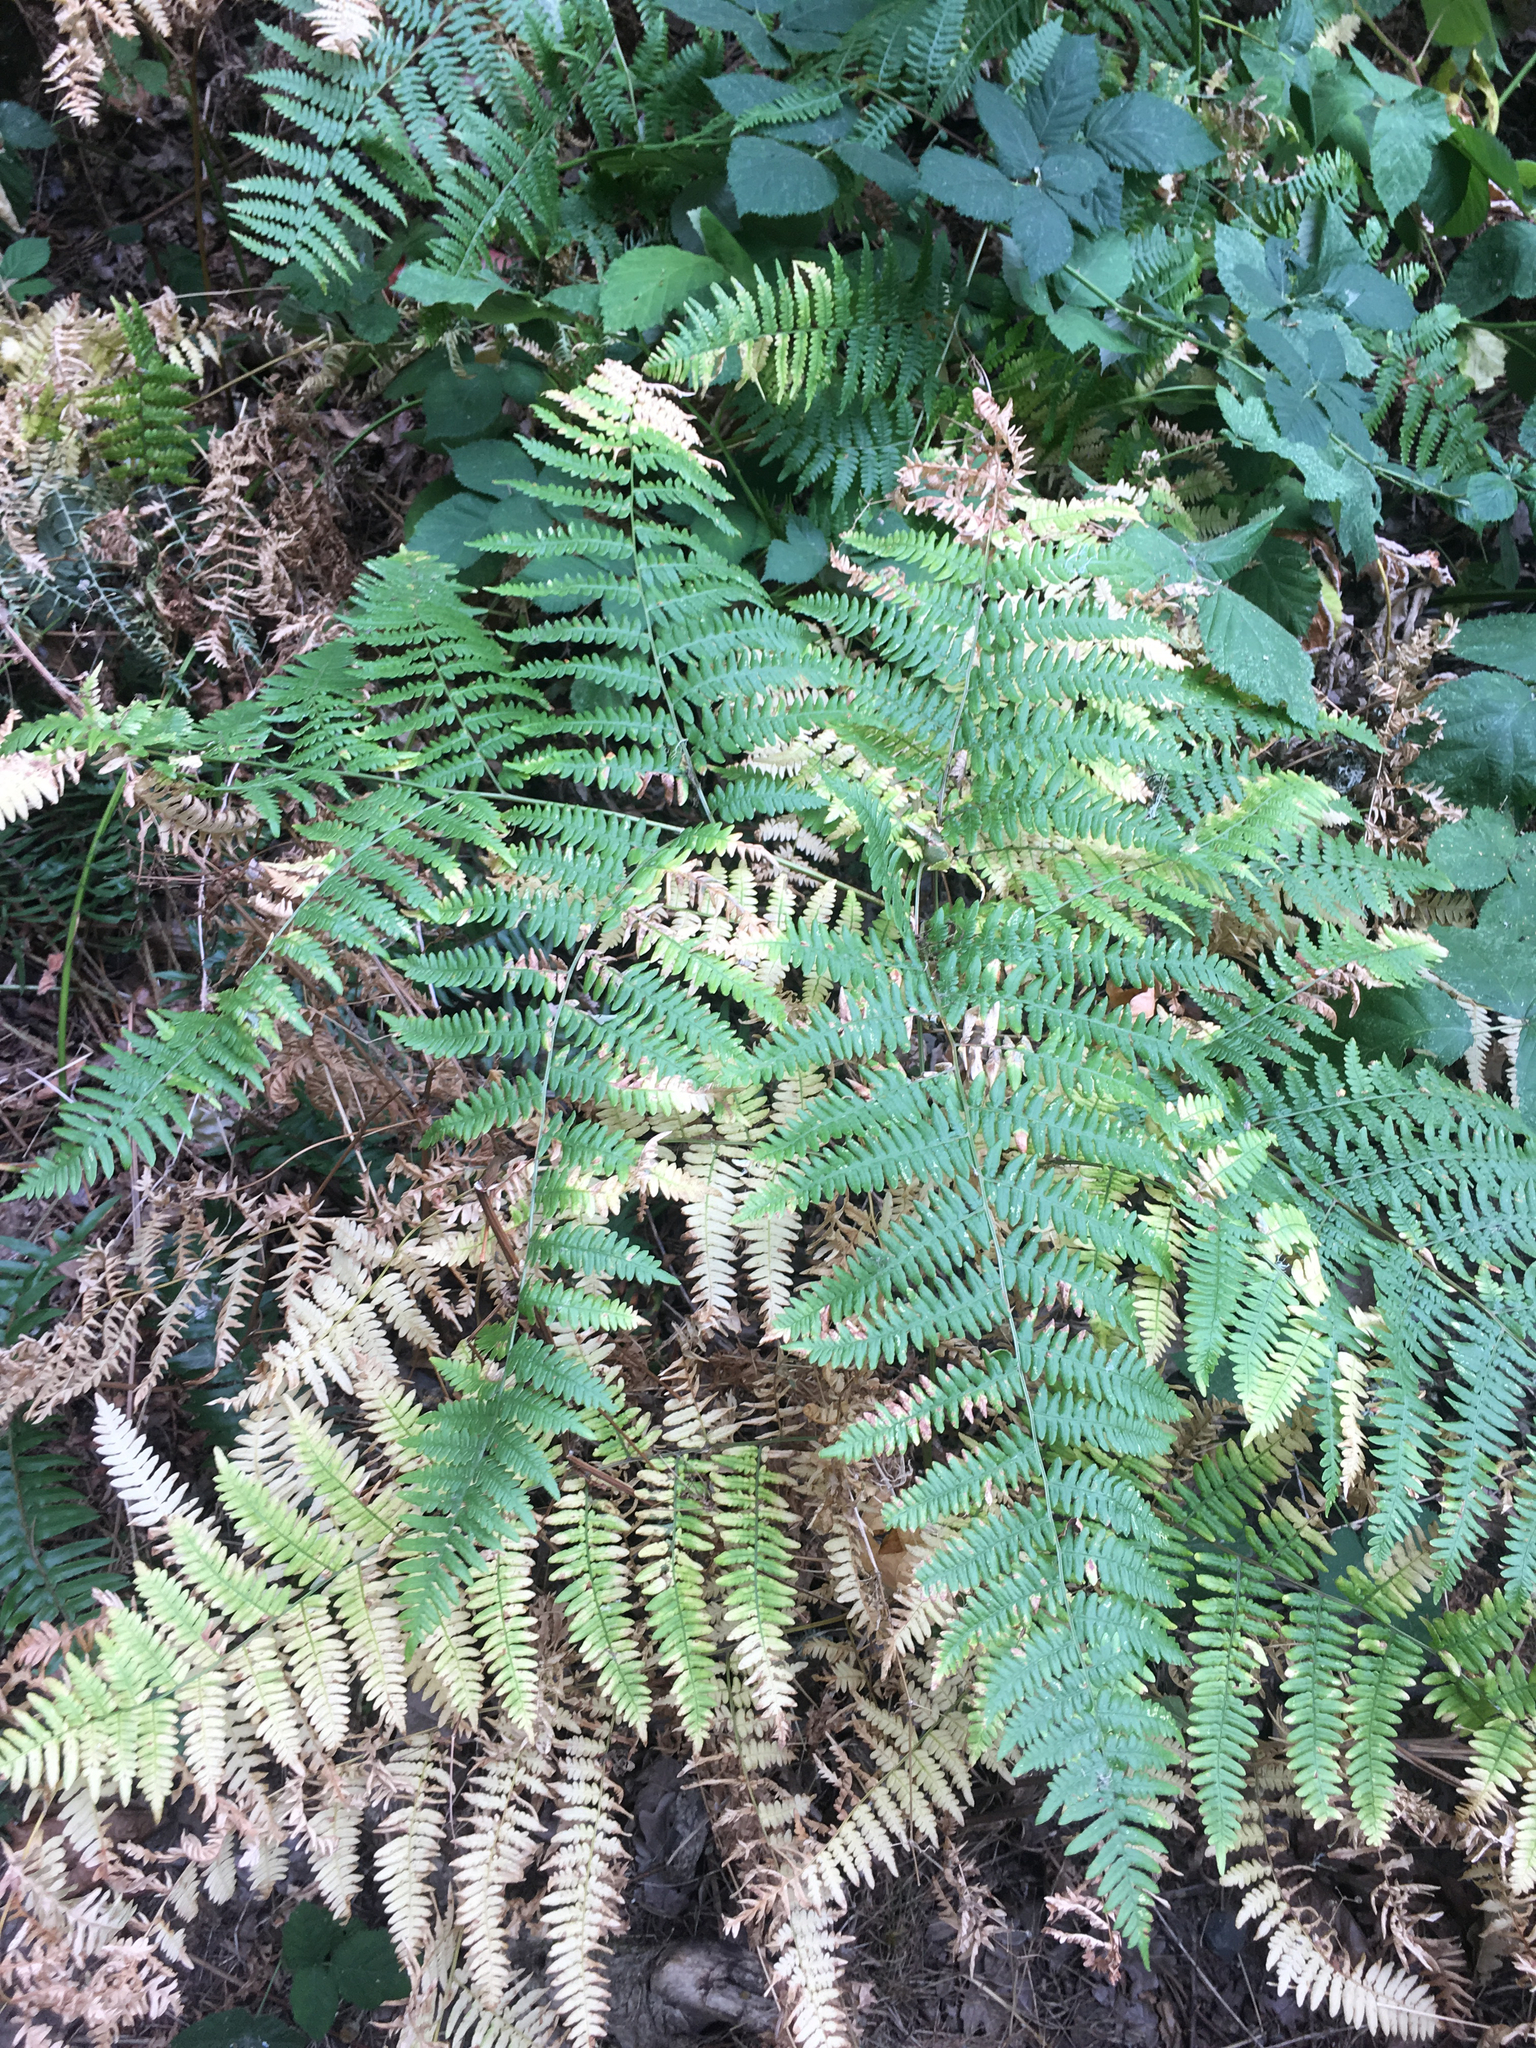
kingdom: Plantae
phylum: Tracheophyta
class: Polypodiopsida
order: Polypodiales
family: Dennstaedtiaceae
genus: Pteridium
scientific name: Pteridium aquilinum
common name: Bracken
